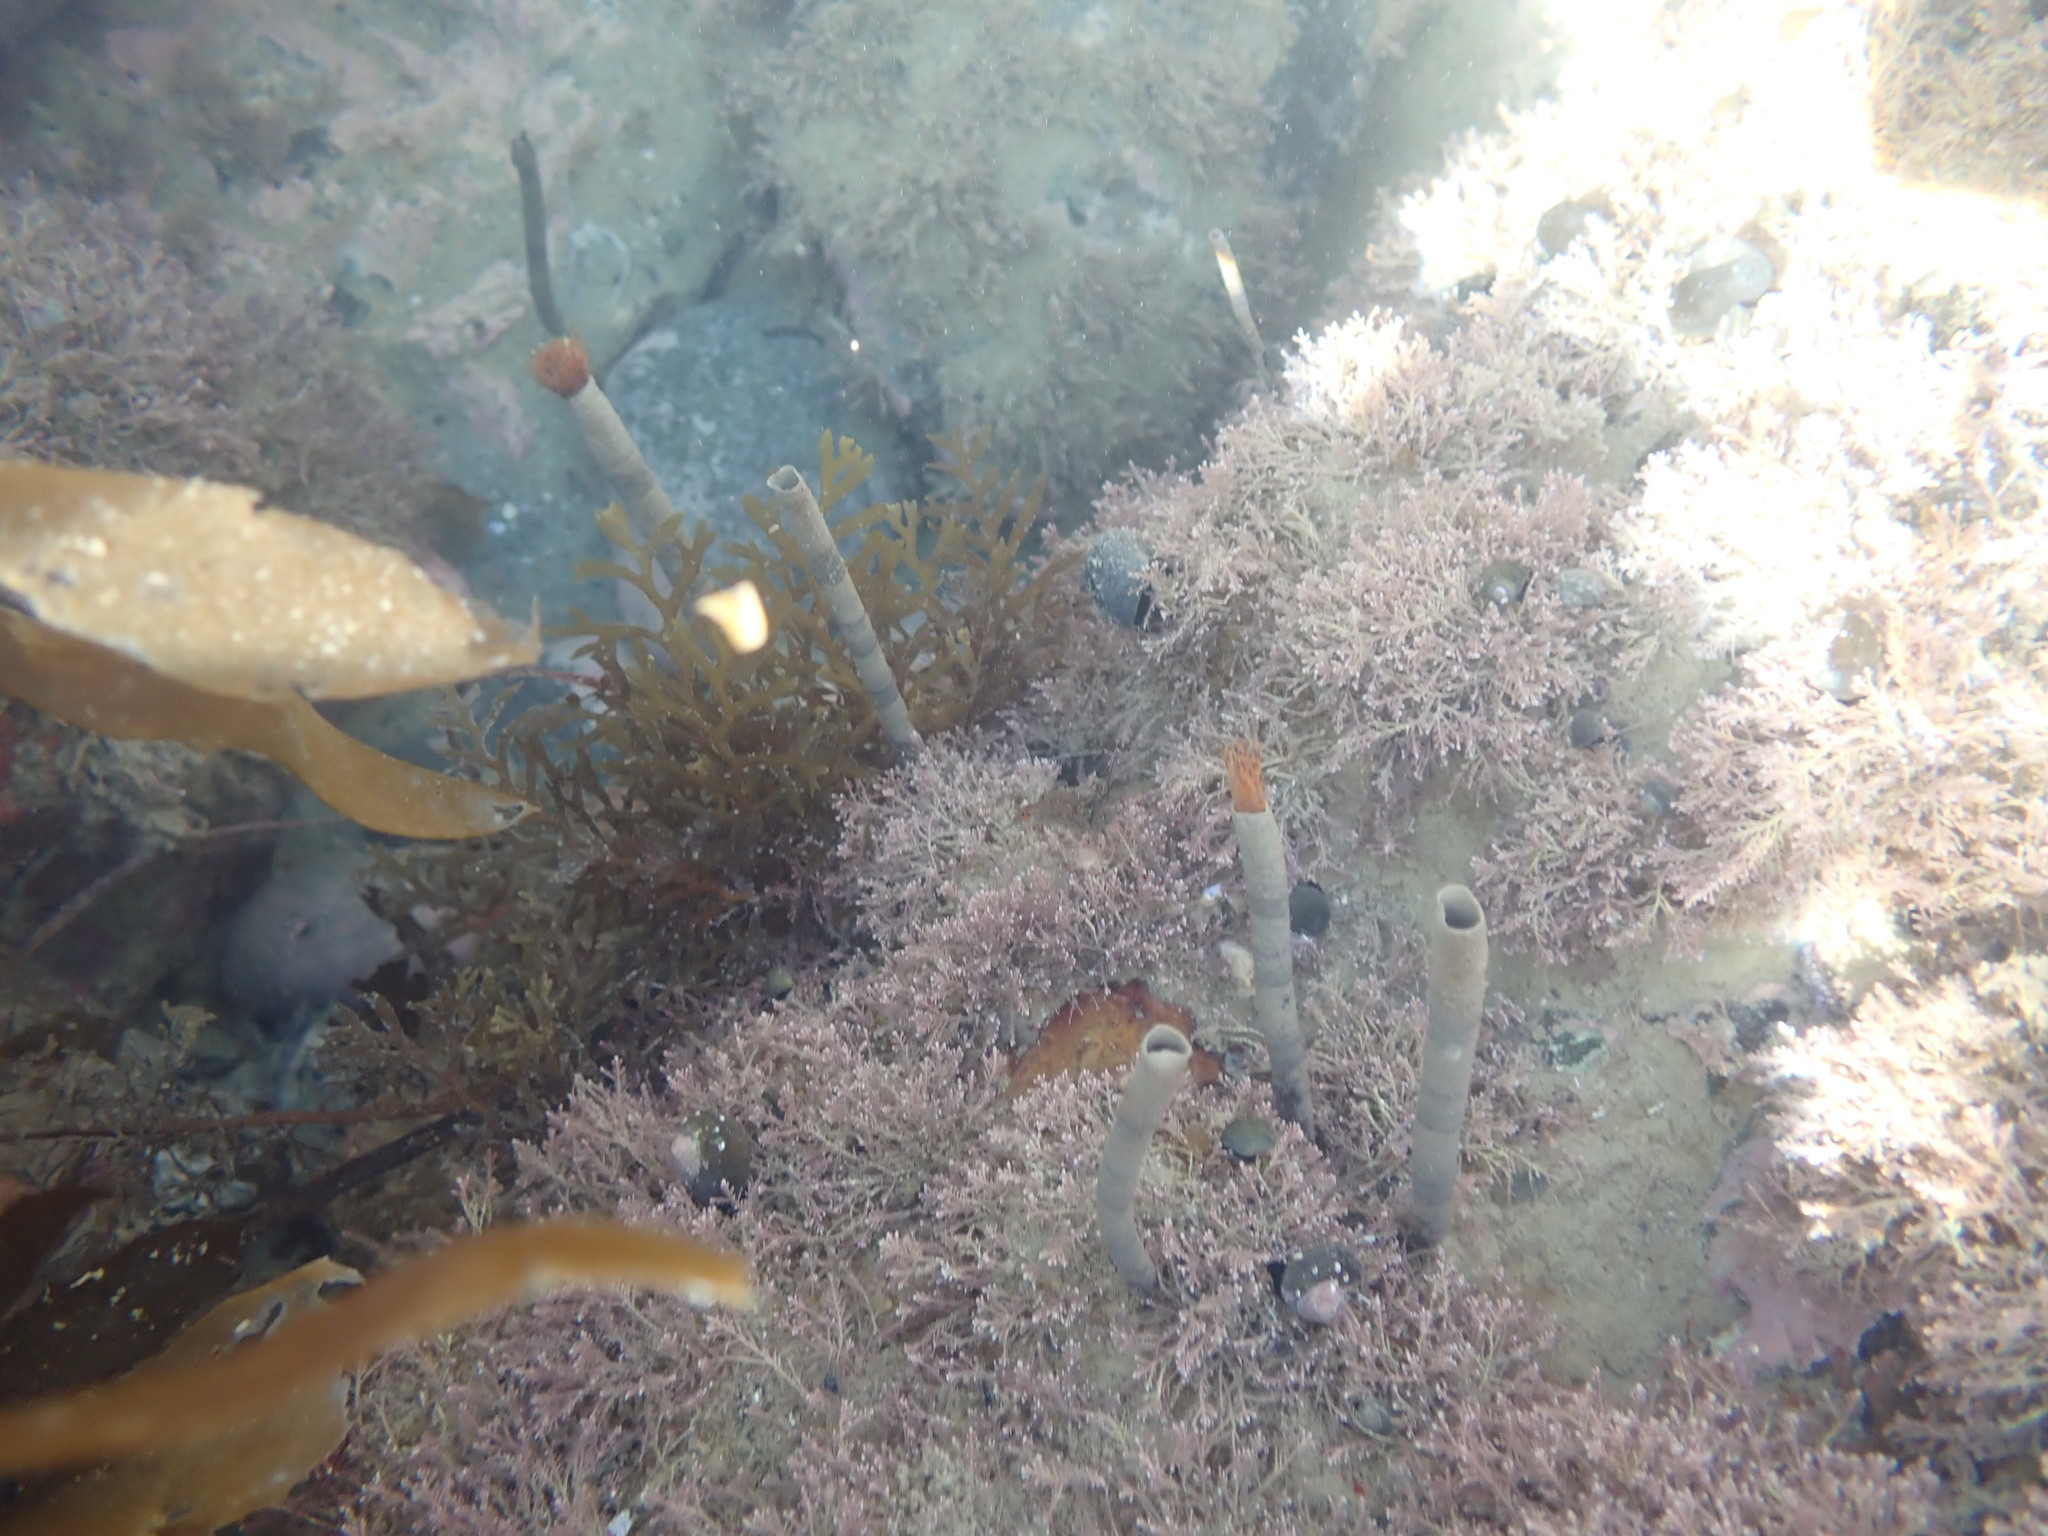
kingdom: Animalia
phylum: Annelida
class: Polychaeta
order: Sabellida
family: Sabellidae
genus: Sabella
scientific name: Sabella spallanzanii
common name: Feather duster worm
